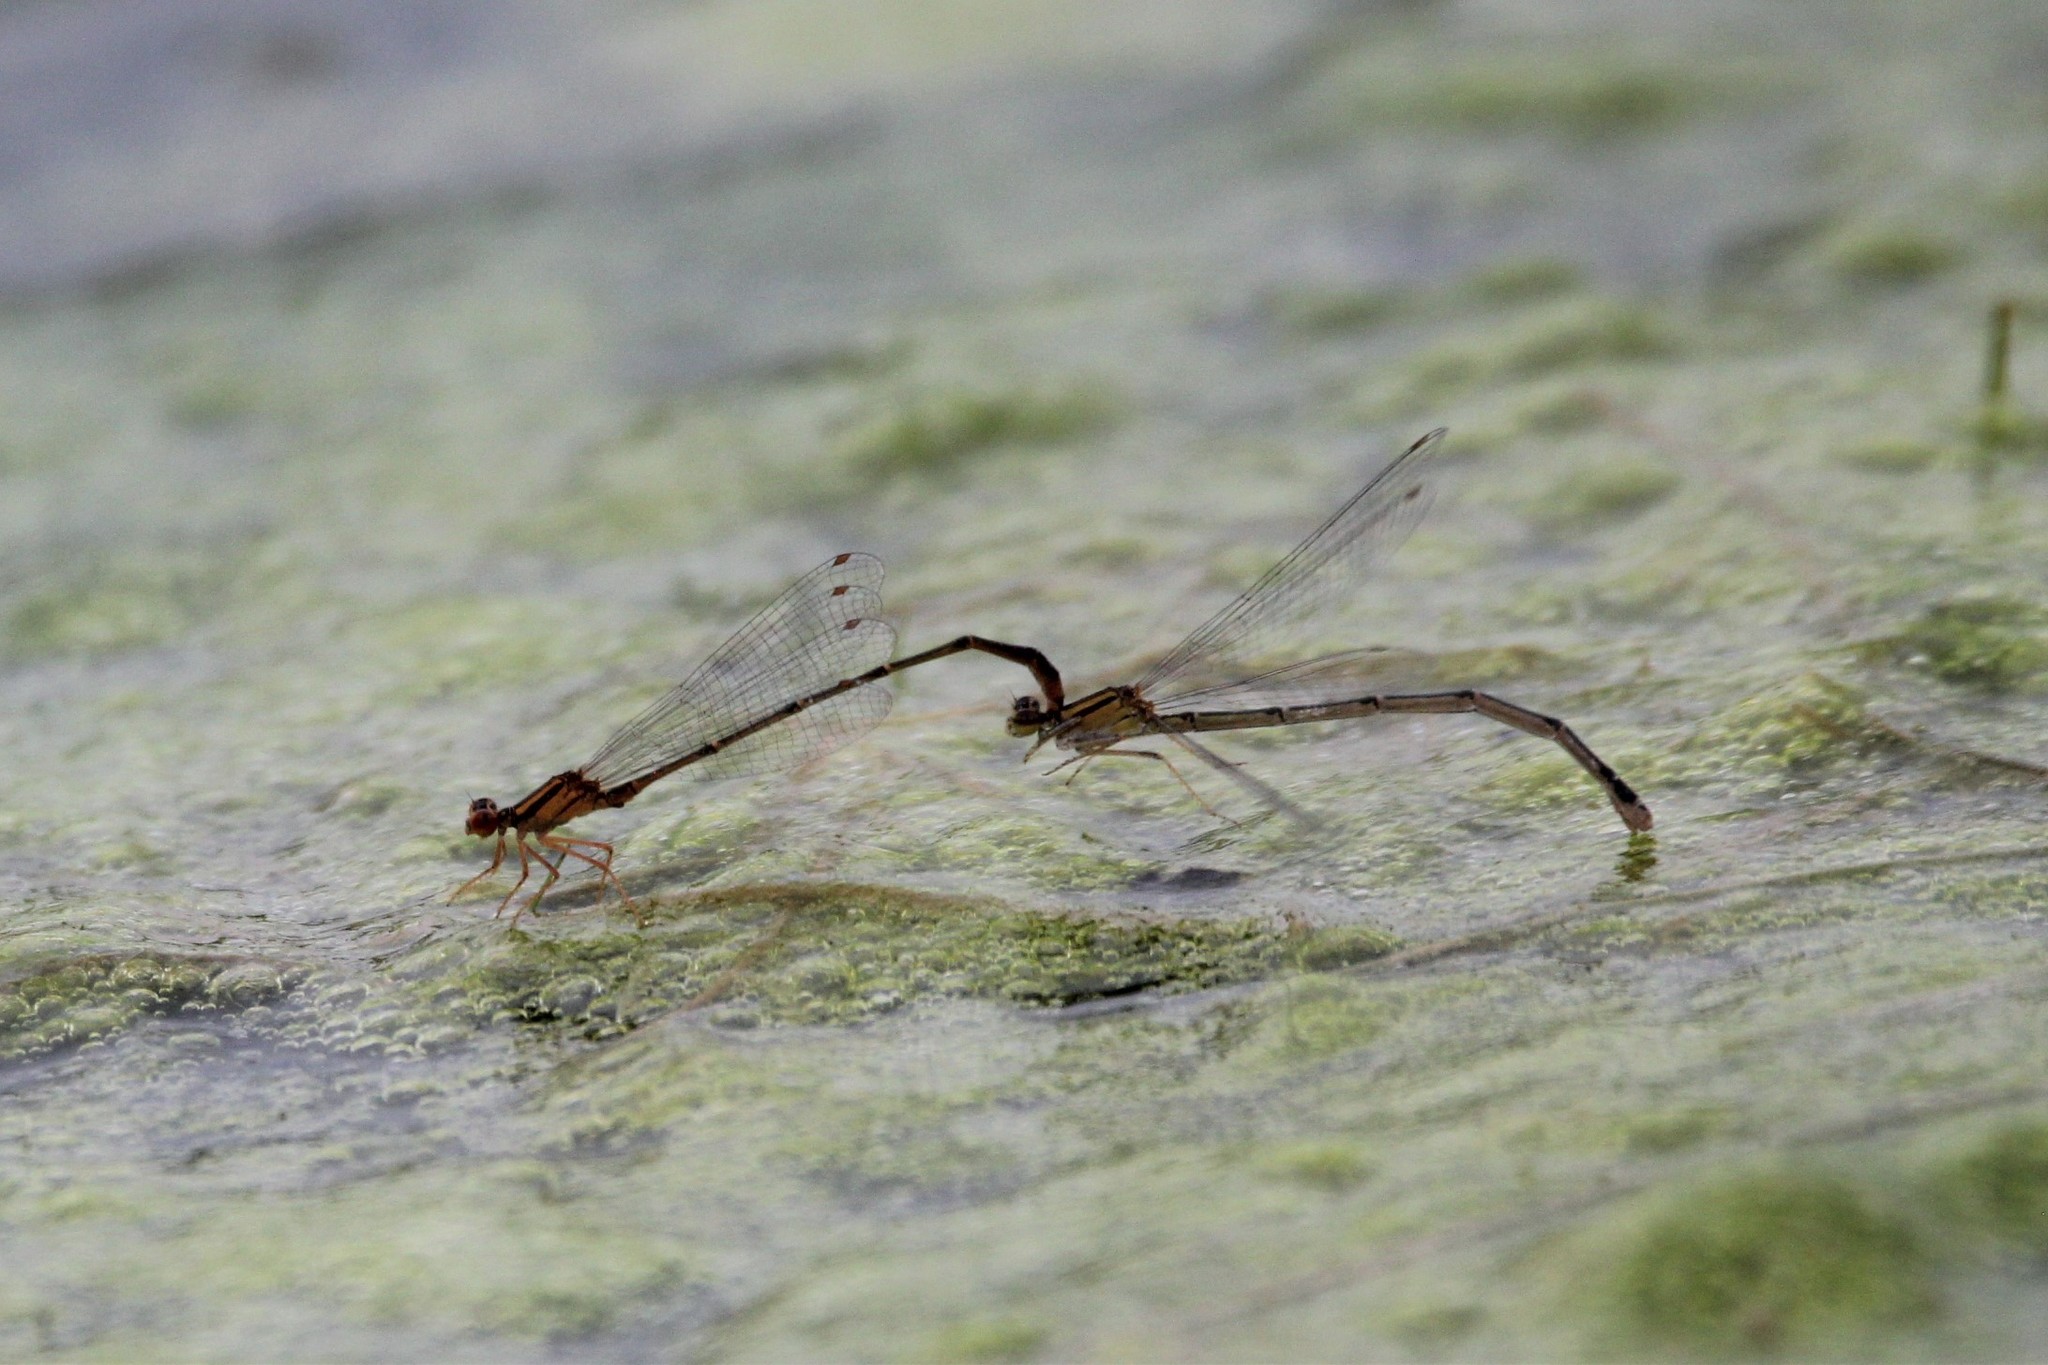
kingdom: Animalia
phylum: Arthropoda
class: Insecta
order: Odonata
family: Coenagrionidae
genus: Enallagma
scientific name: Enallagma signatum
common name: Orange bluet
